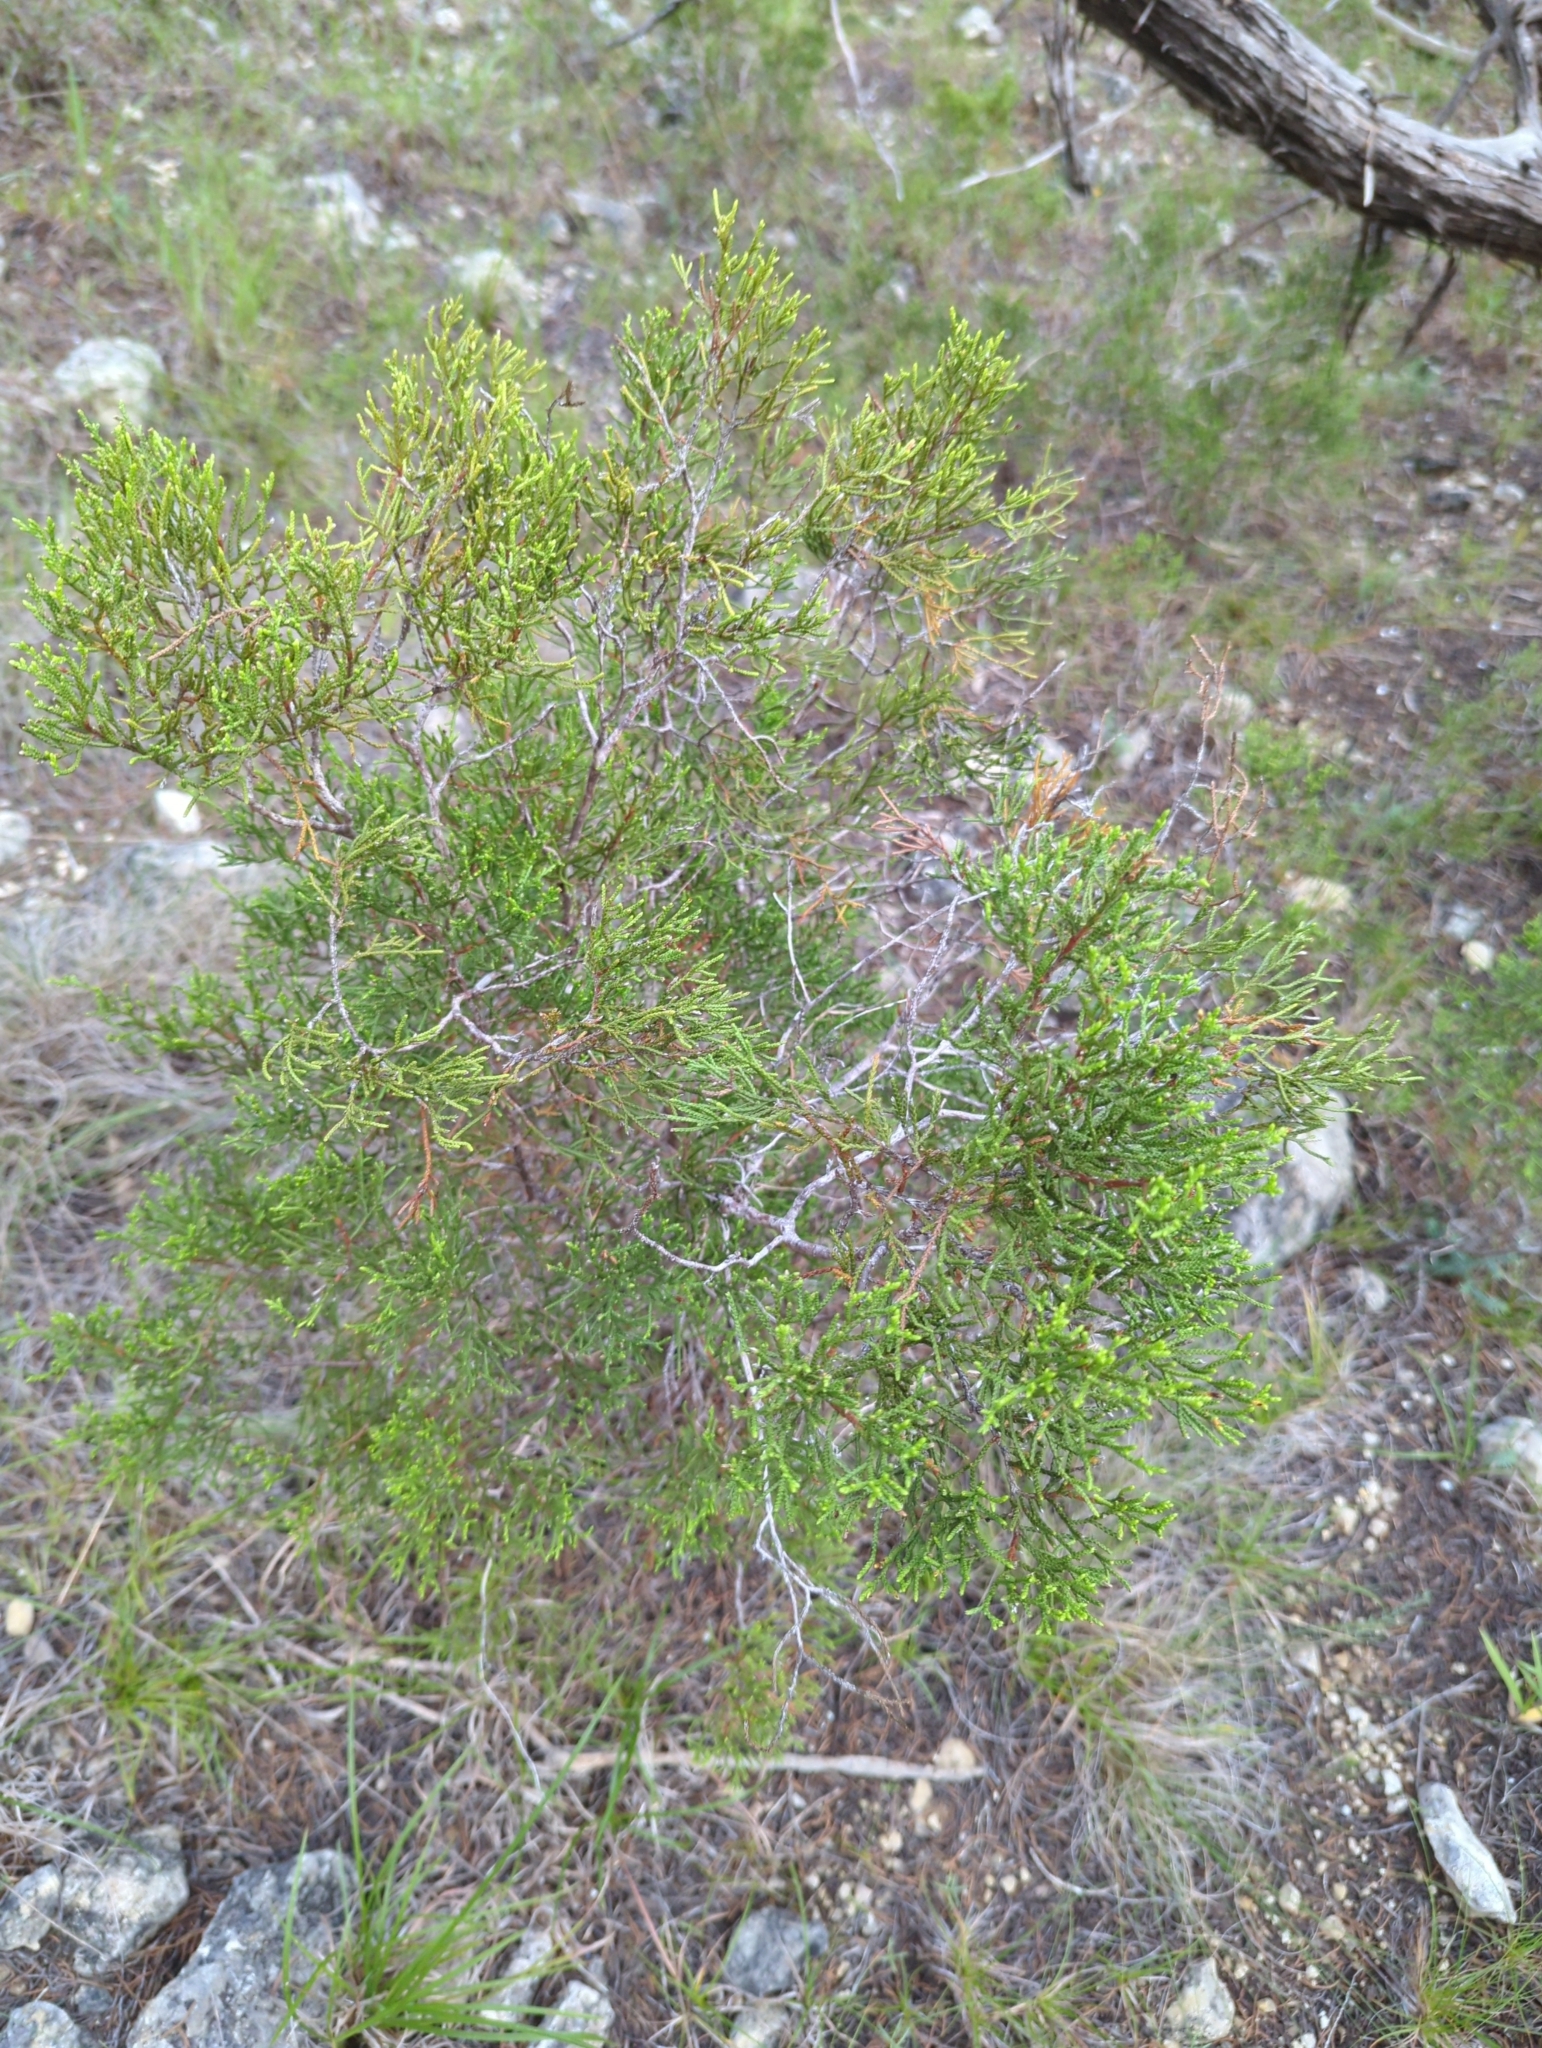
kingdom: Plantae
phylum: Tracheophyta
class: Pinopsida
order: Pinales
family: Cupressaceae
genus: Juniperus
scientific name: Juniperus ashei
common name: Mexican juniper
